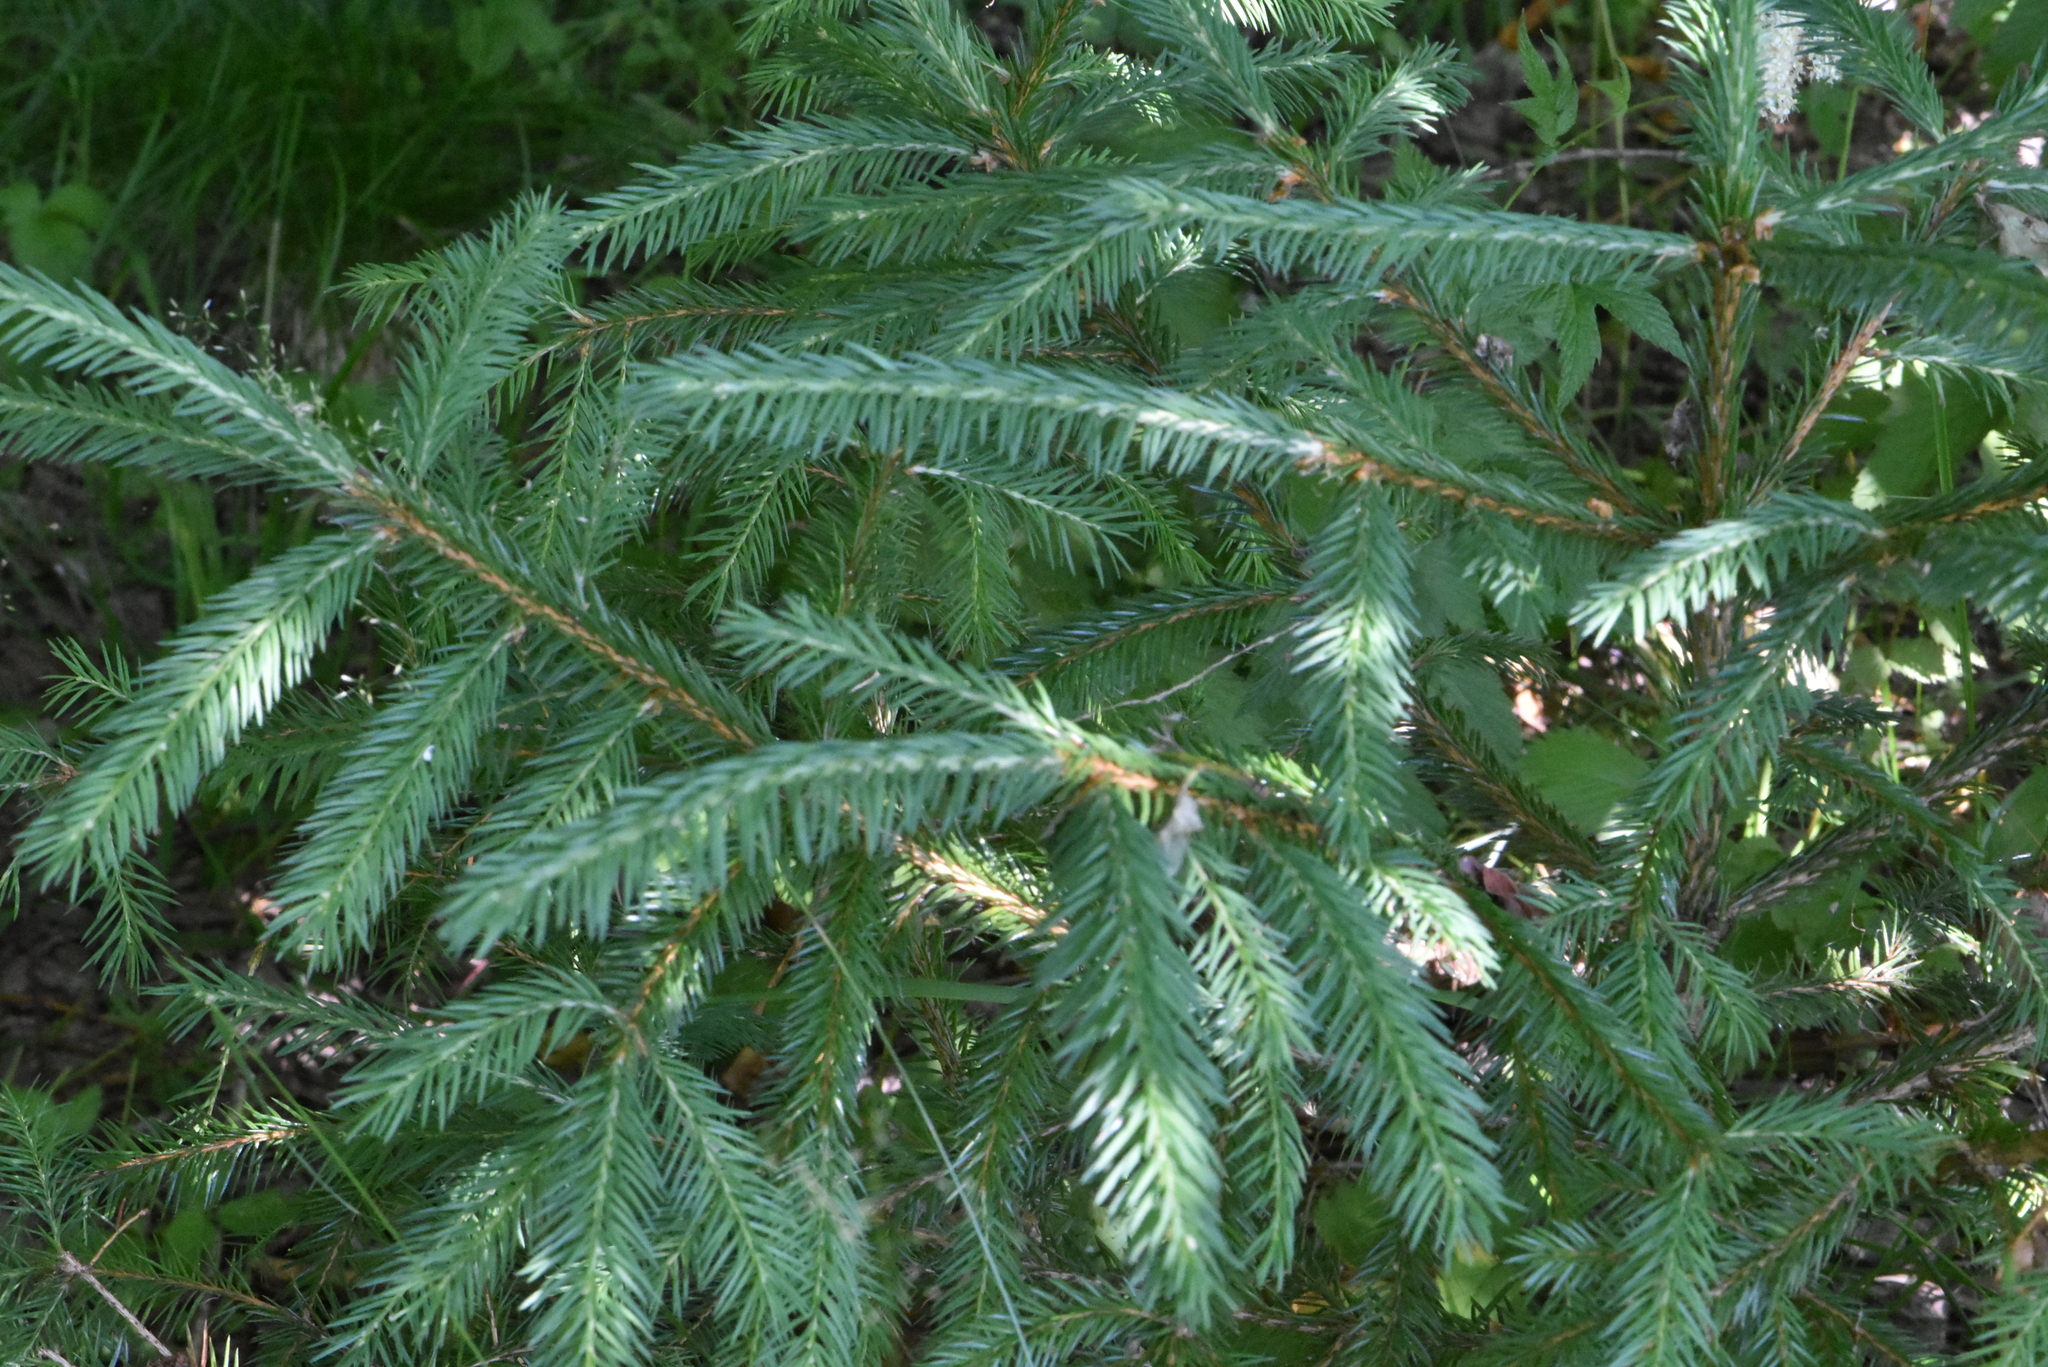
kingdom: Plantae
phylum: Tracheophyta
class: Pinopsida
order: Pinales
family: Pinaceae
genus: Picea
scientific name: Picea abies
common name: Norway spruce
